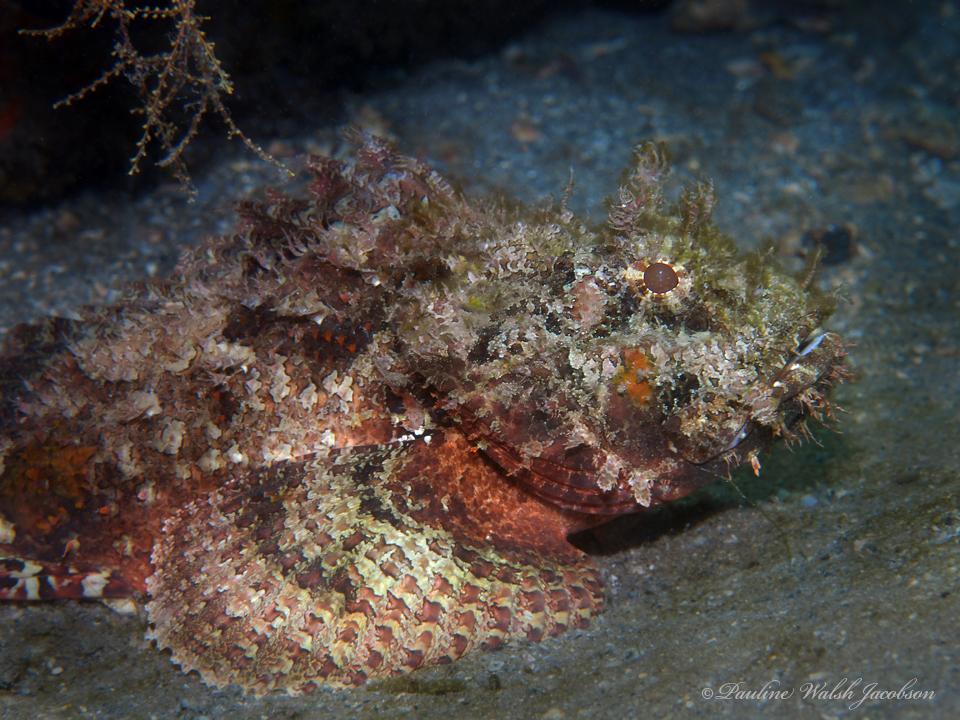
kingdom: Animalia
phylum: Chordata
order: Scorpaeniformes
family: Scorpaenidae
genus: Scorpaena
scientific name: Scorpaena plumieri
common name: Spotted scorpionfish
